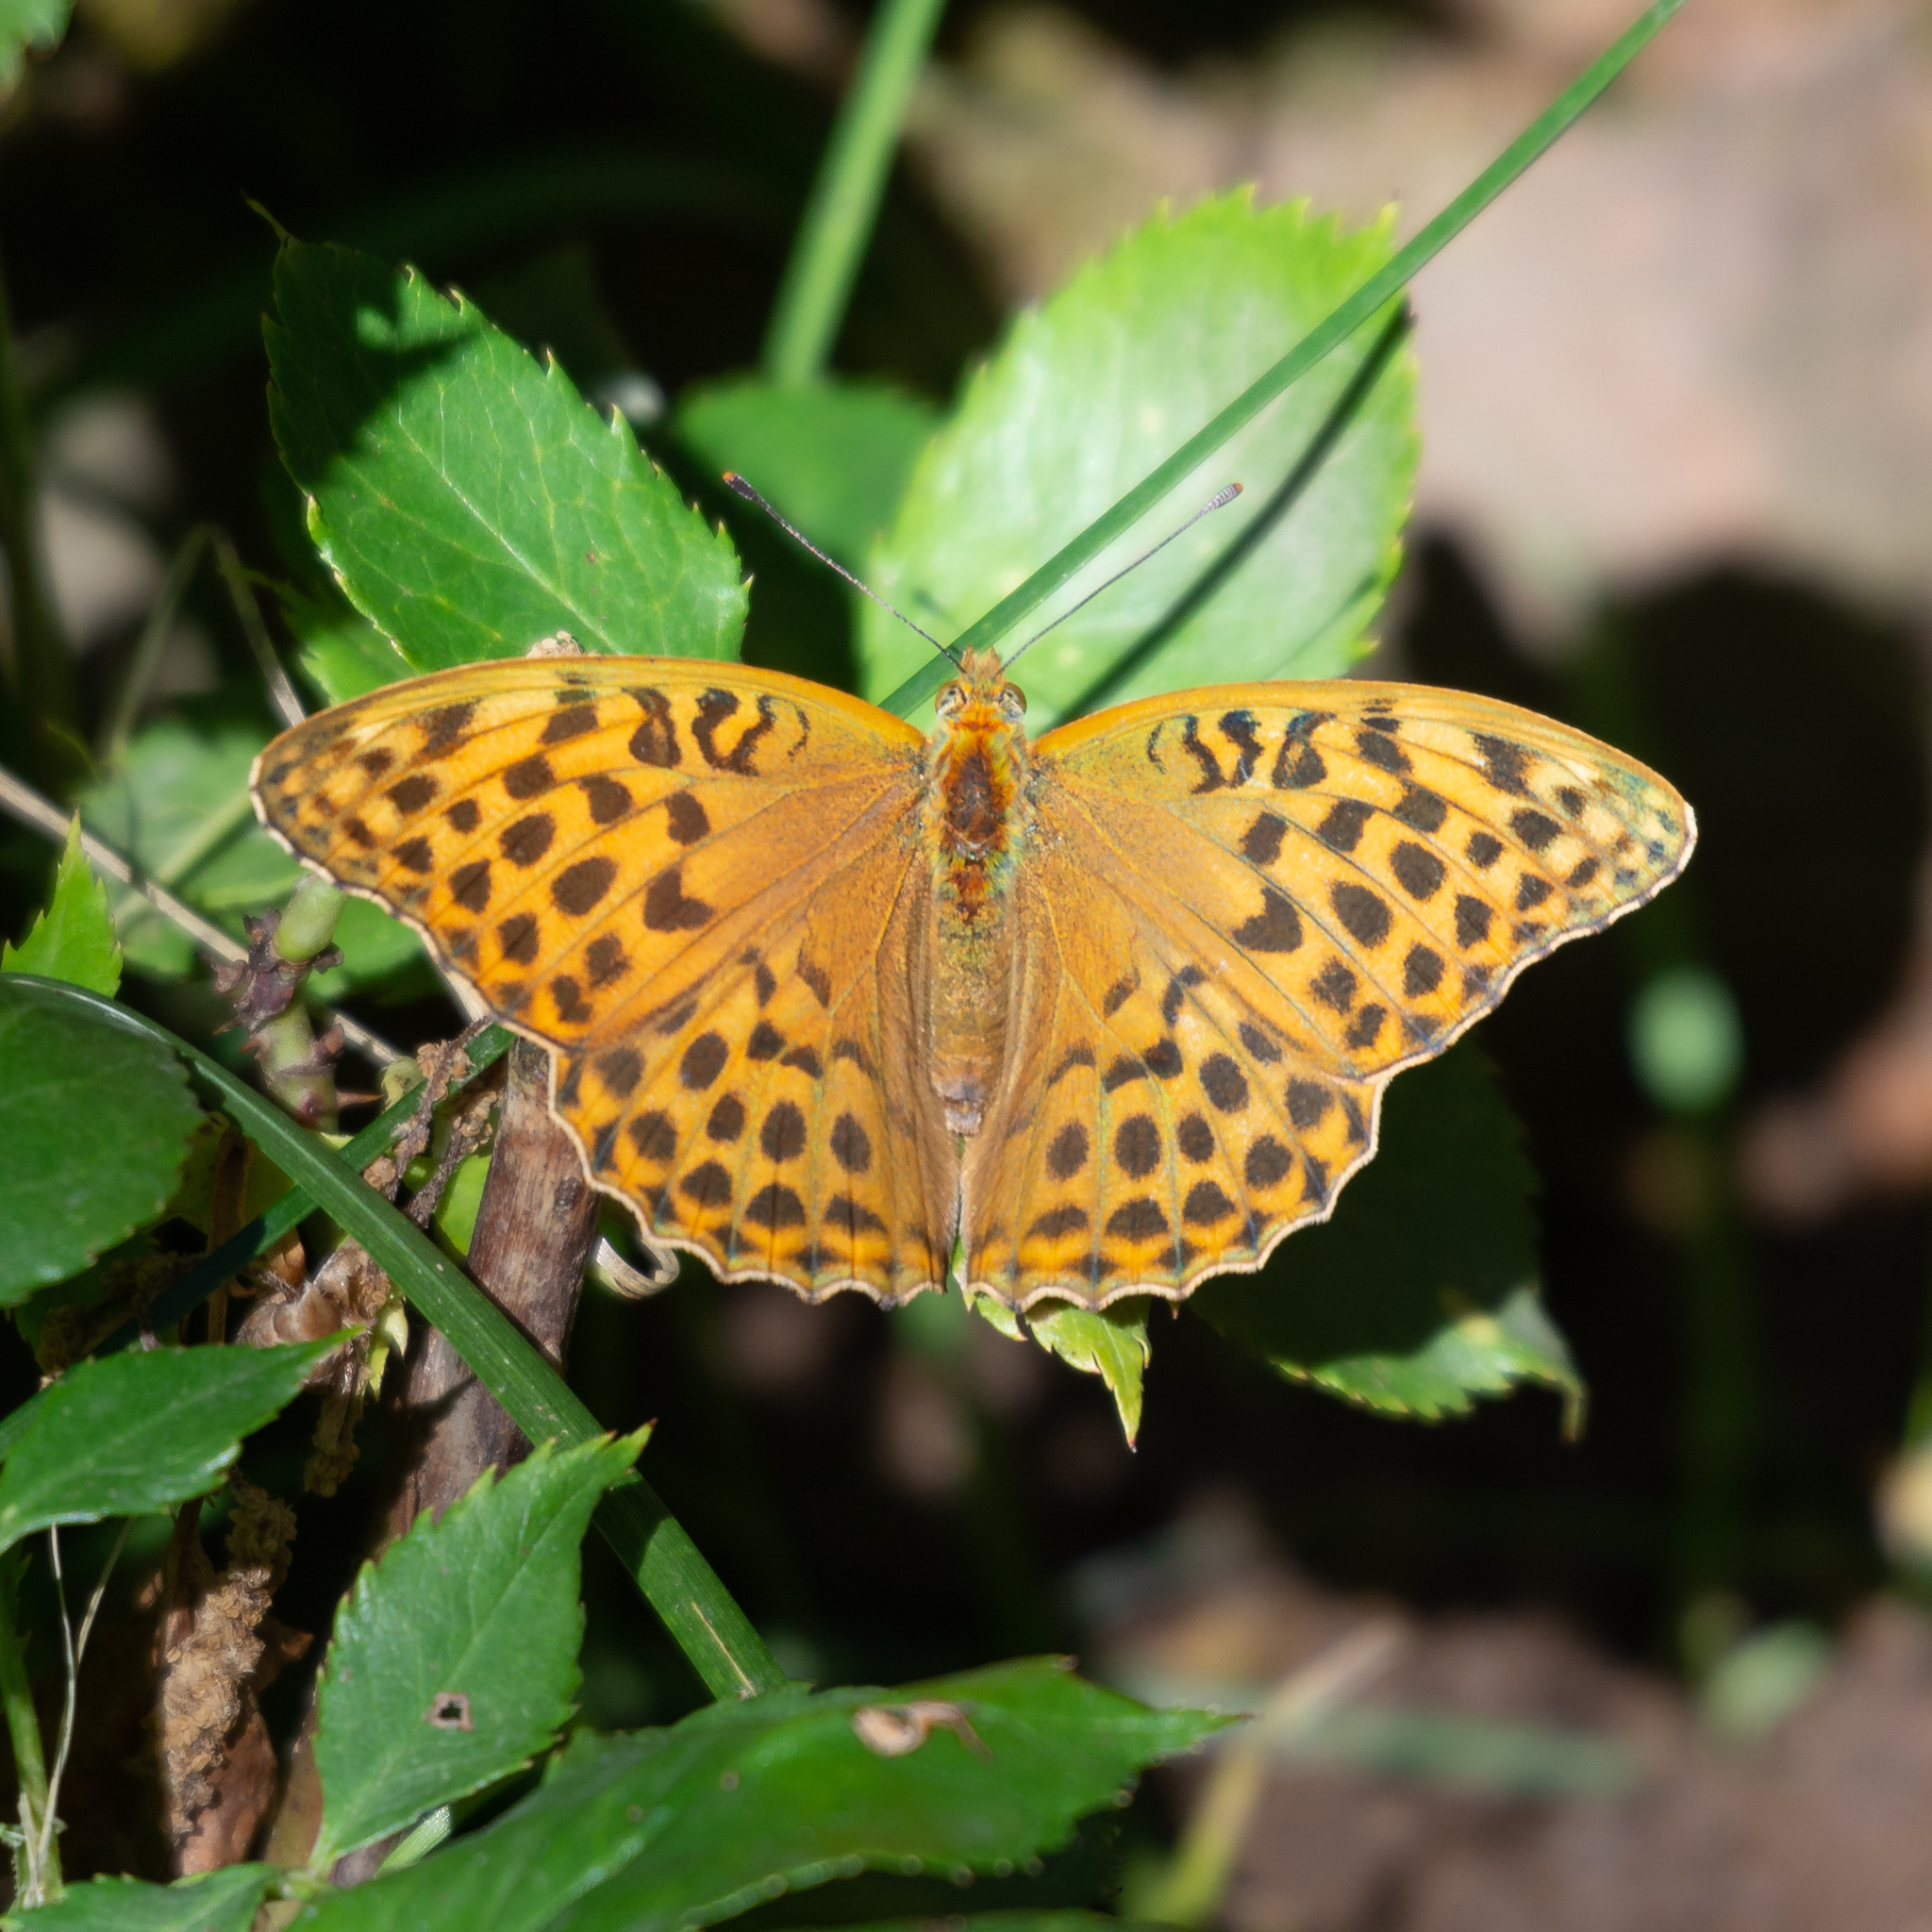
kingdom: Animalia
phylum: Arthropoda
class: Insecta
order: Lepidoptera
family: Nymphalidae
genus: Argynnis
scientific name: Argynnis paphia
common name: Silver-washed fritillary
